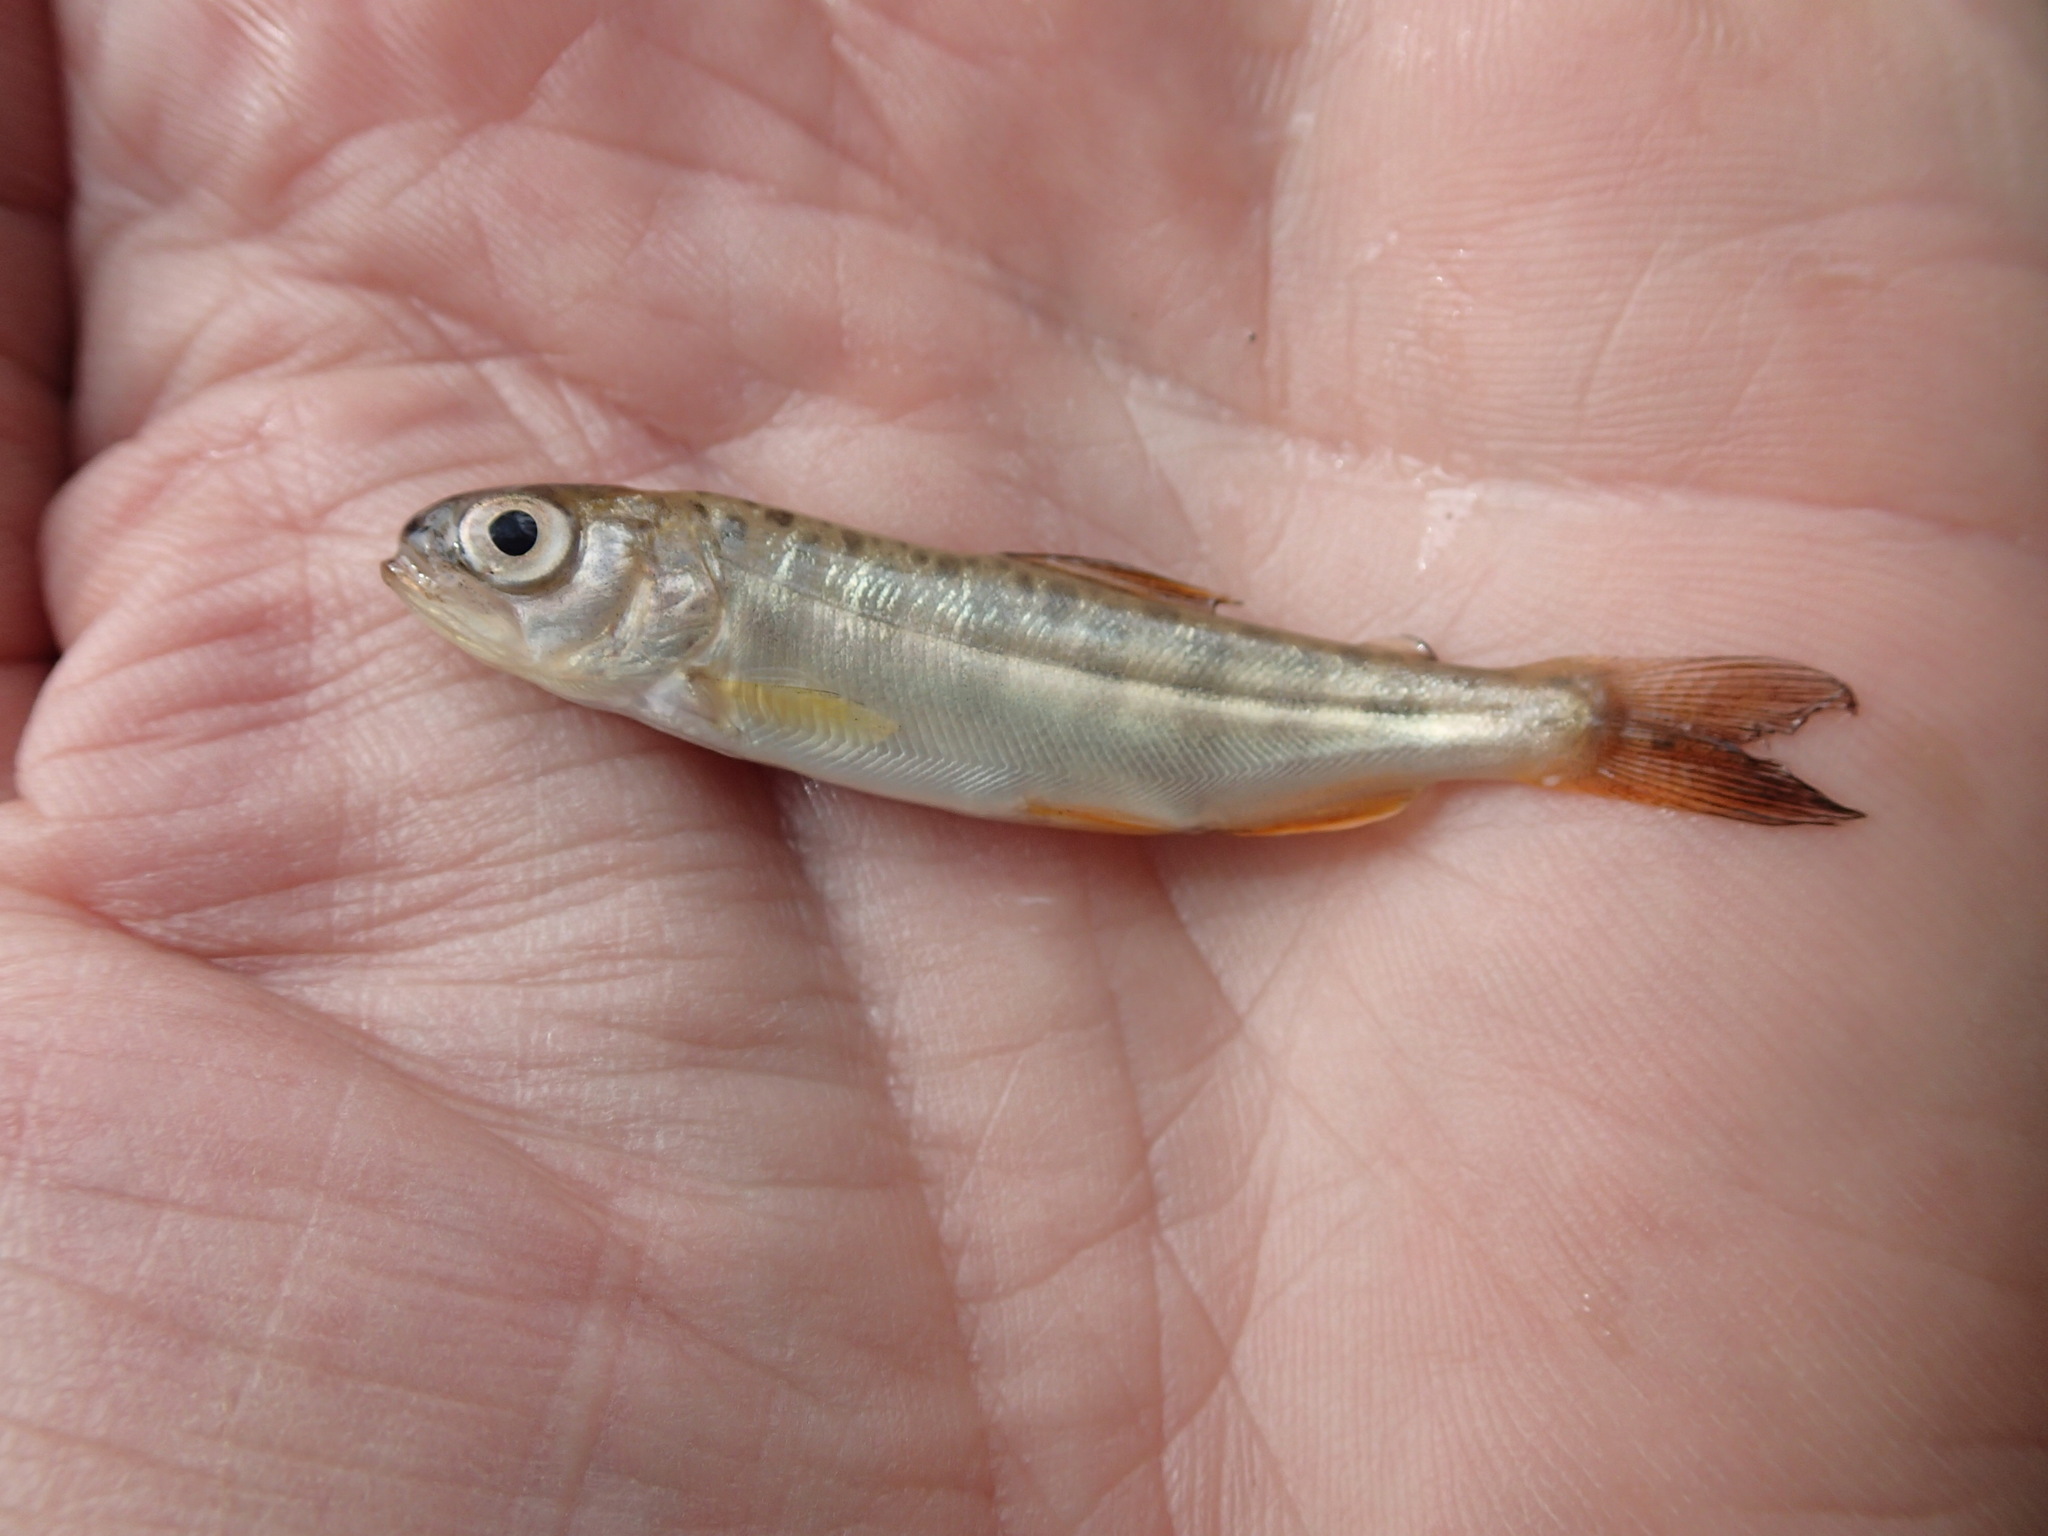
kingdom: Animalia
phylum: Chordata
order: Salmoniformes
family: Salmonidae
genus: Oncorhynchus
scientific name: Oncorhynchus tshawytscha
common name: Chinook salmon
